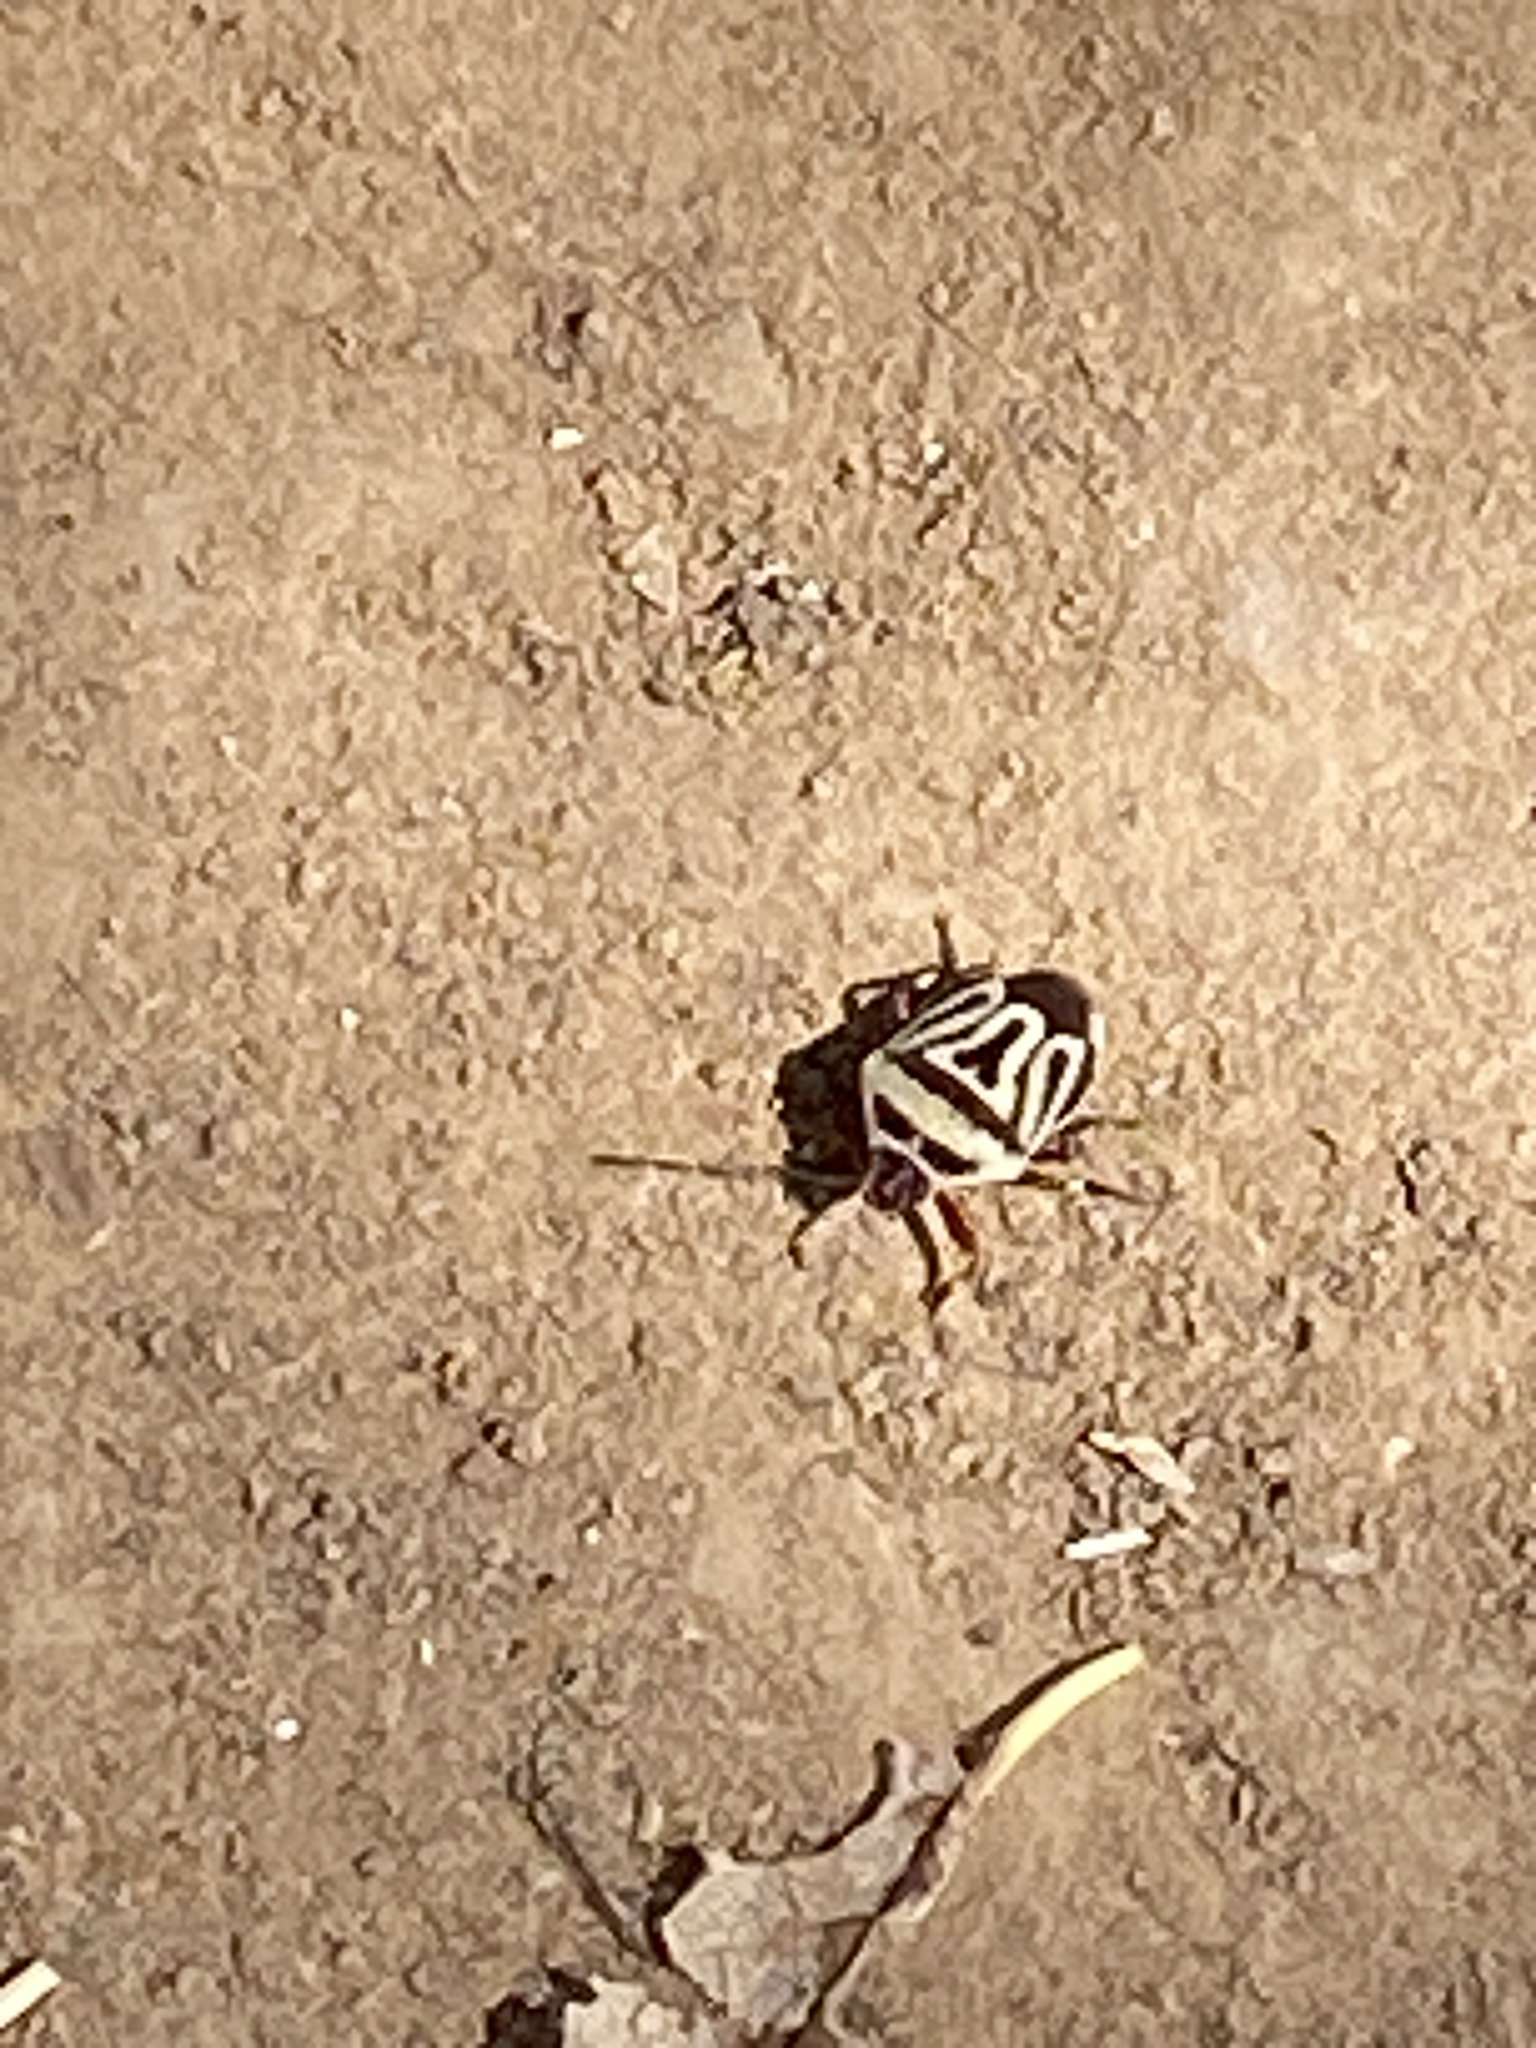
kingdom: Animalia
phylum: Arthropoda
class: Insecta
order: Hemiptera
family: Pentatomidae
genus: Perillus
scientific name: Perillus bioculatus
